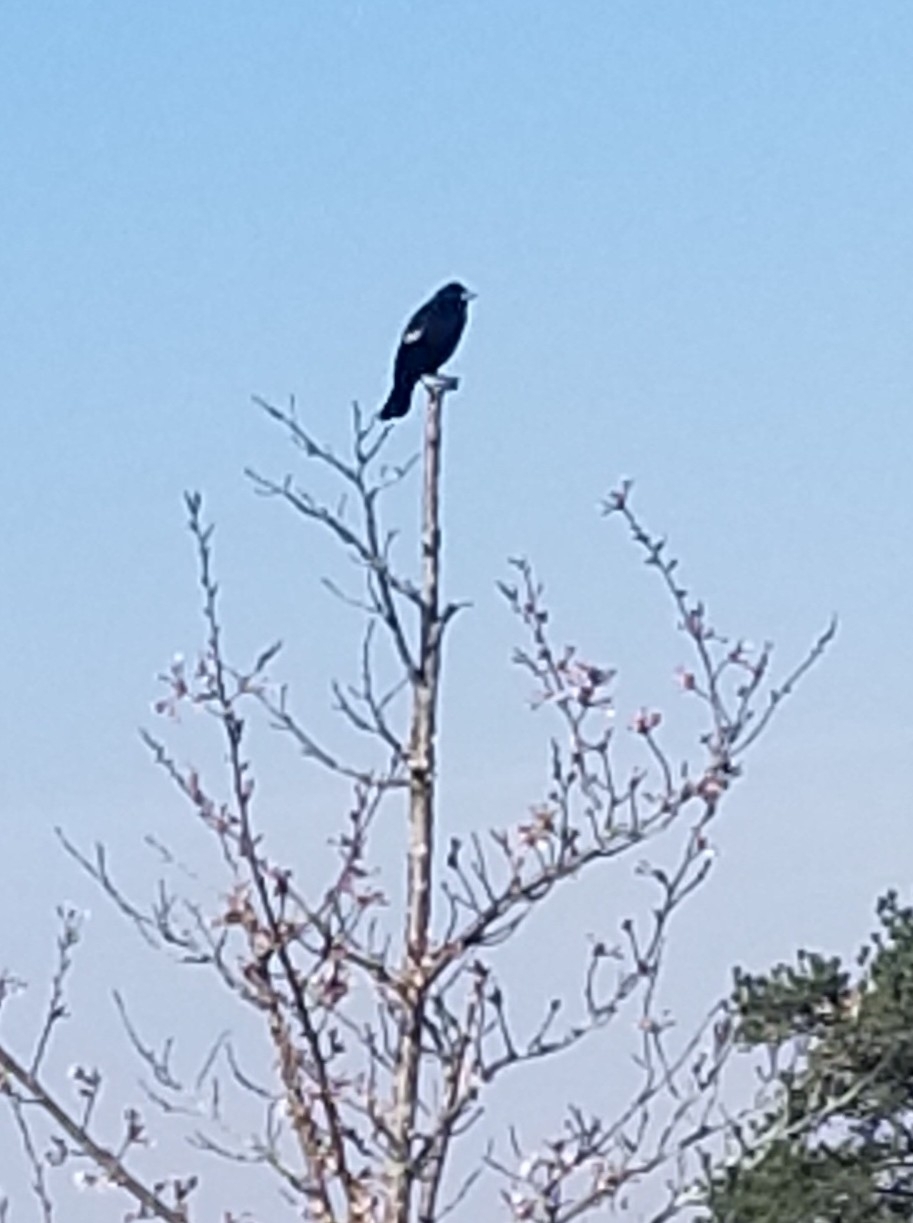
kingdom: Animalia
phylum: Chordata
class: Aves
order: Passeriformes
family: Icteridae
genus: Agelaius
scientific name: Agelaius phoeniceus
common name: Red-winged blackbird
